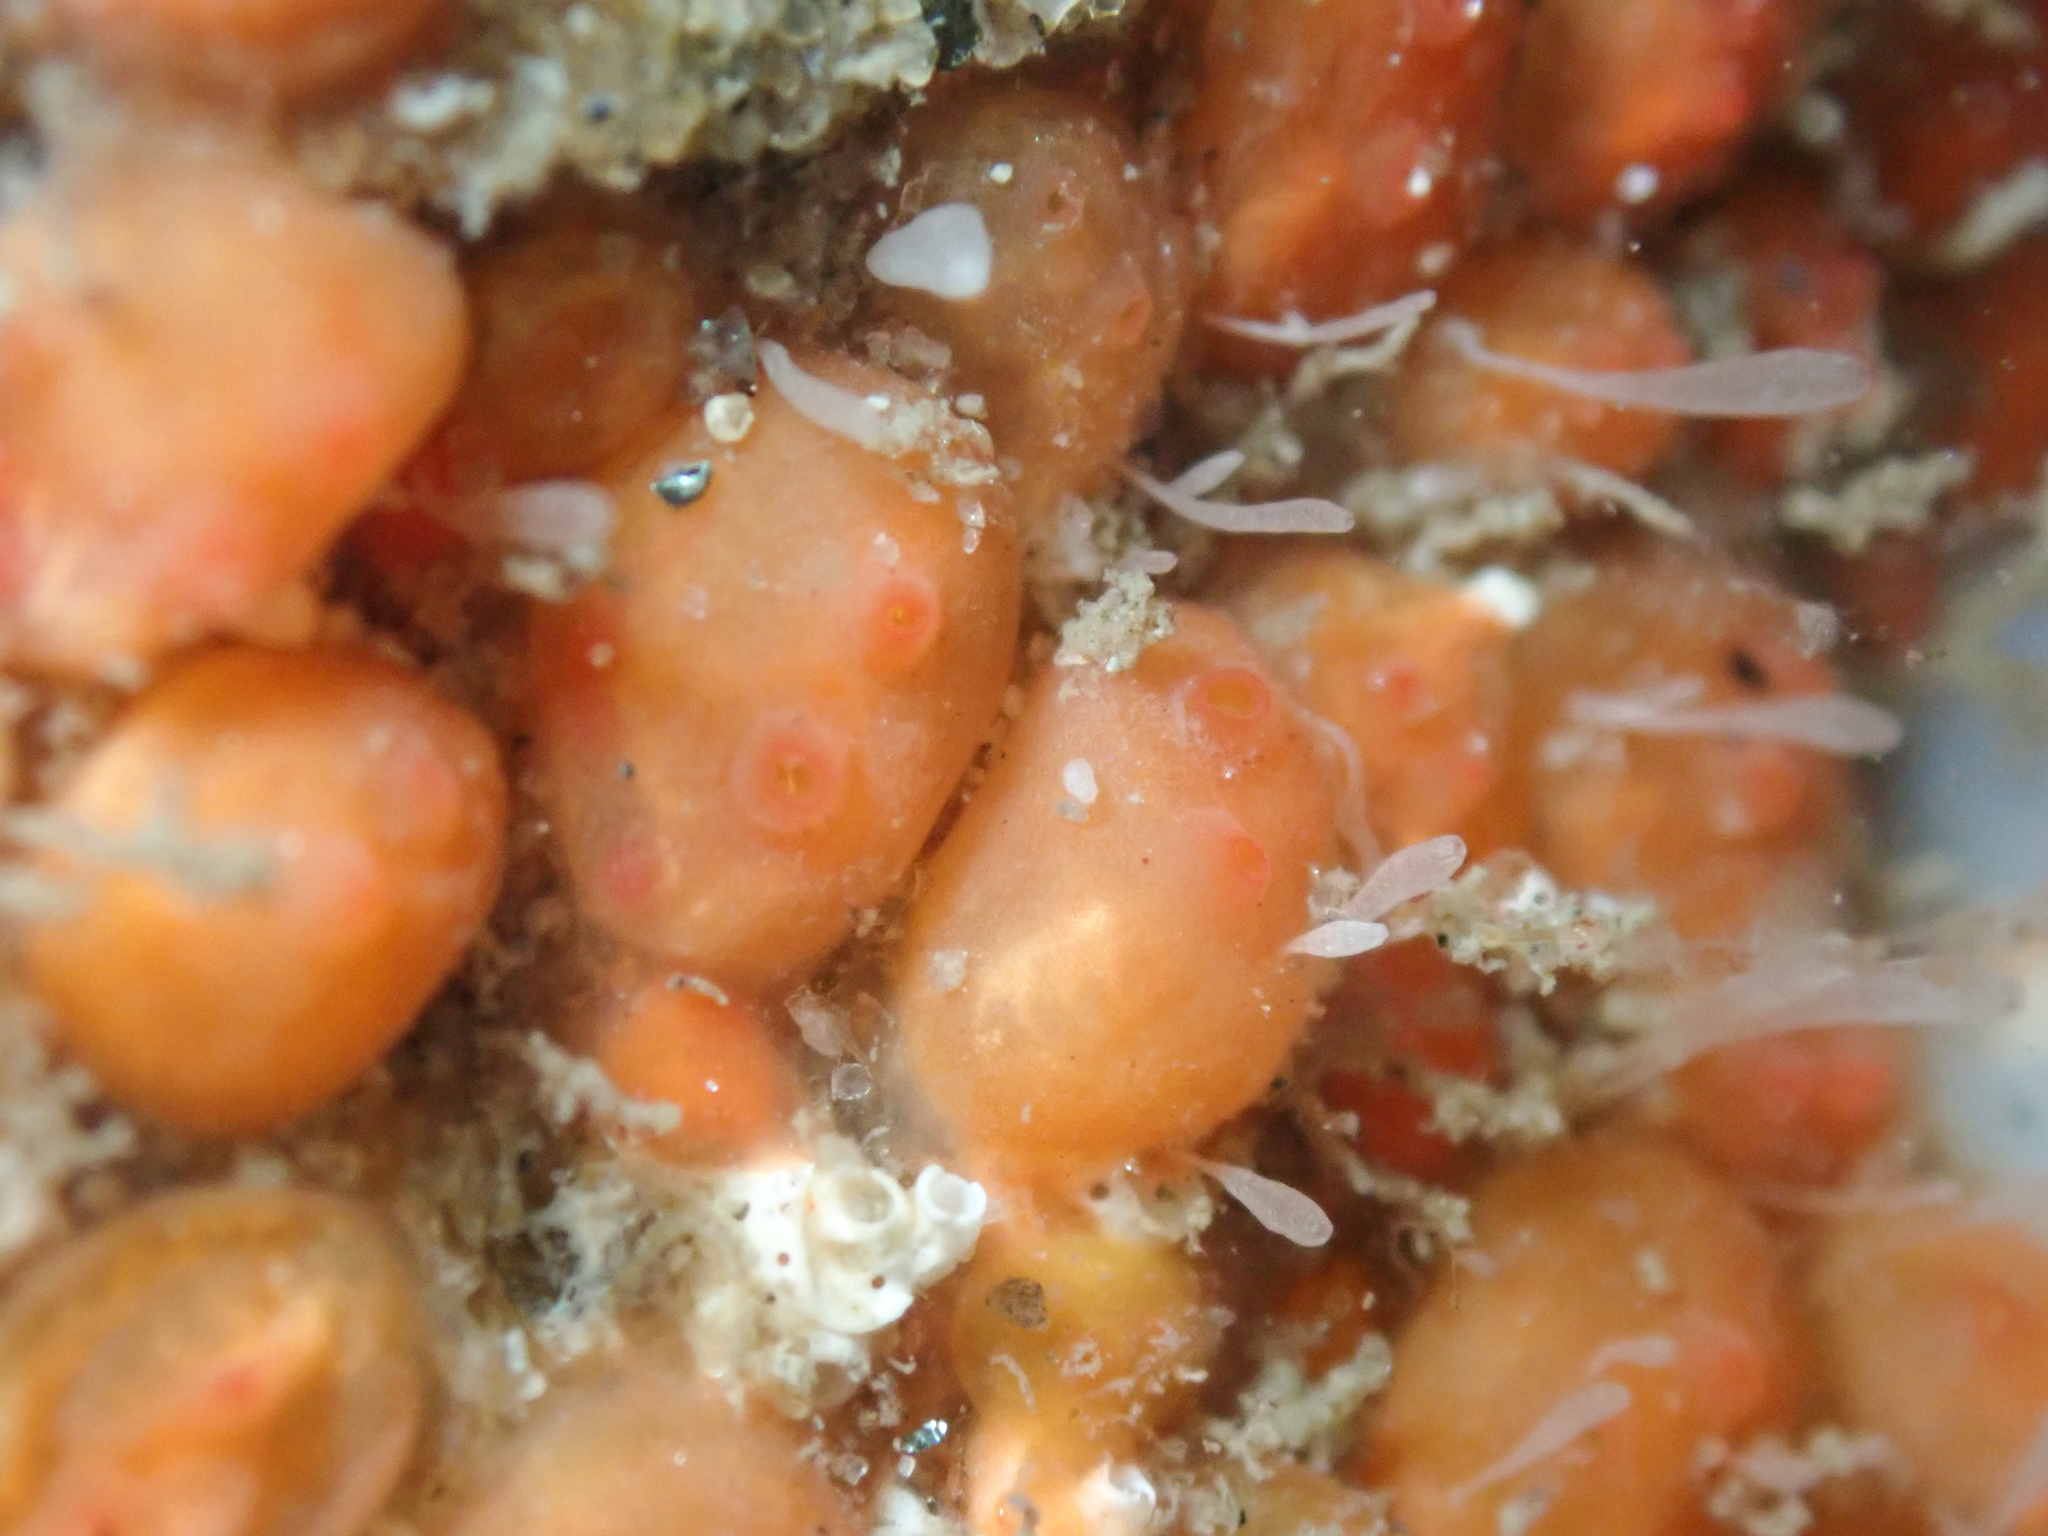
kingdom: Animalia
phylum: Chordata
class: Ascidiacea
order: Stolidobranchia
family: Styelidae
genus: Metandrocarpa
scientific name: Metandrocarpa taylori
